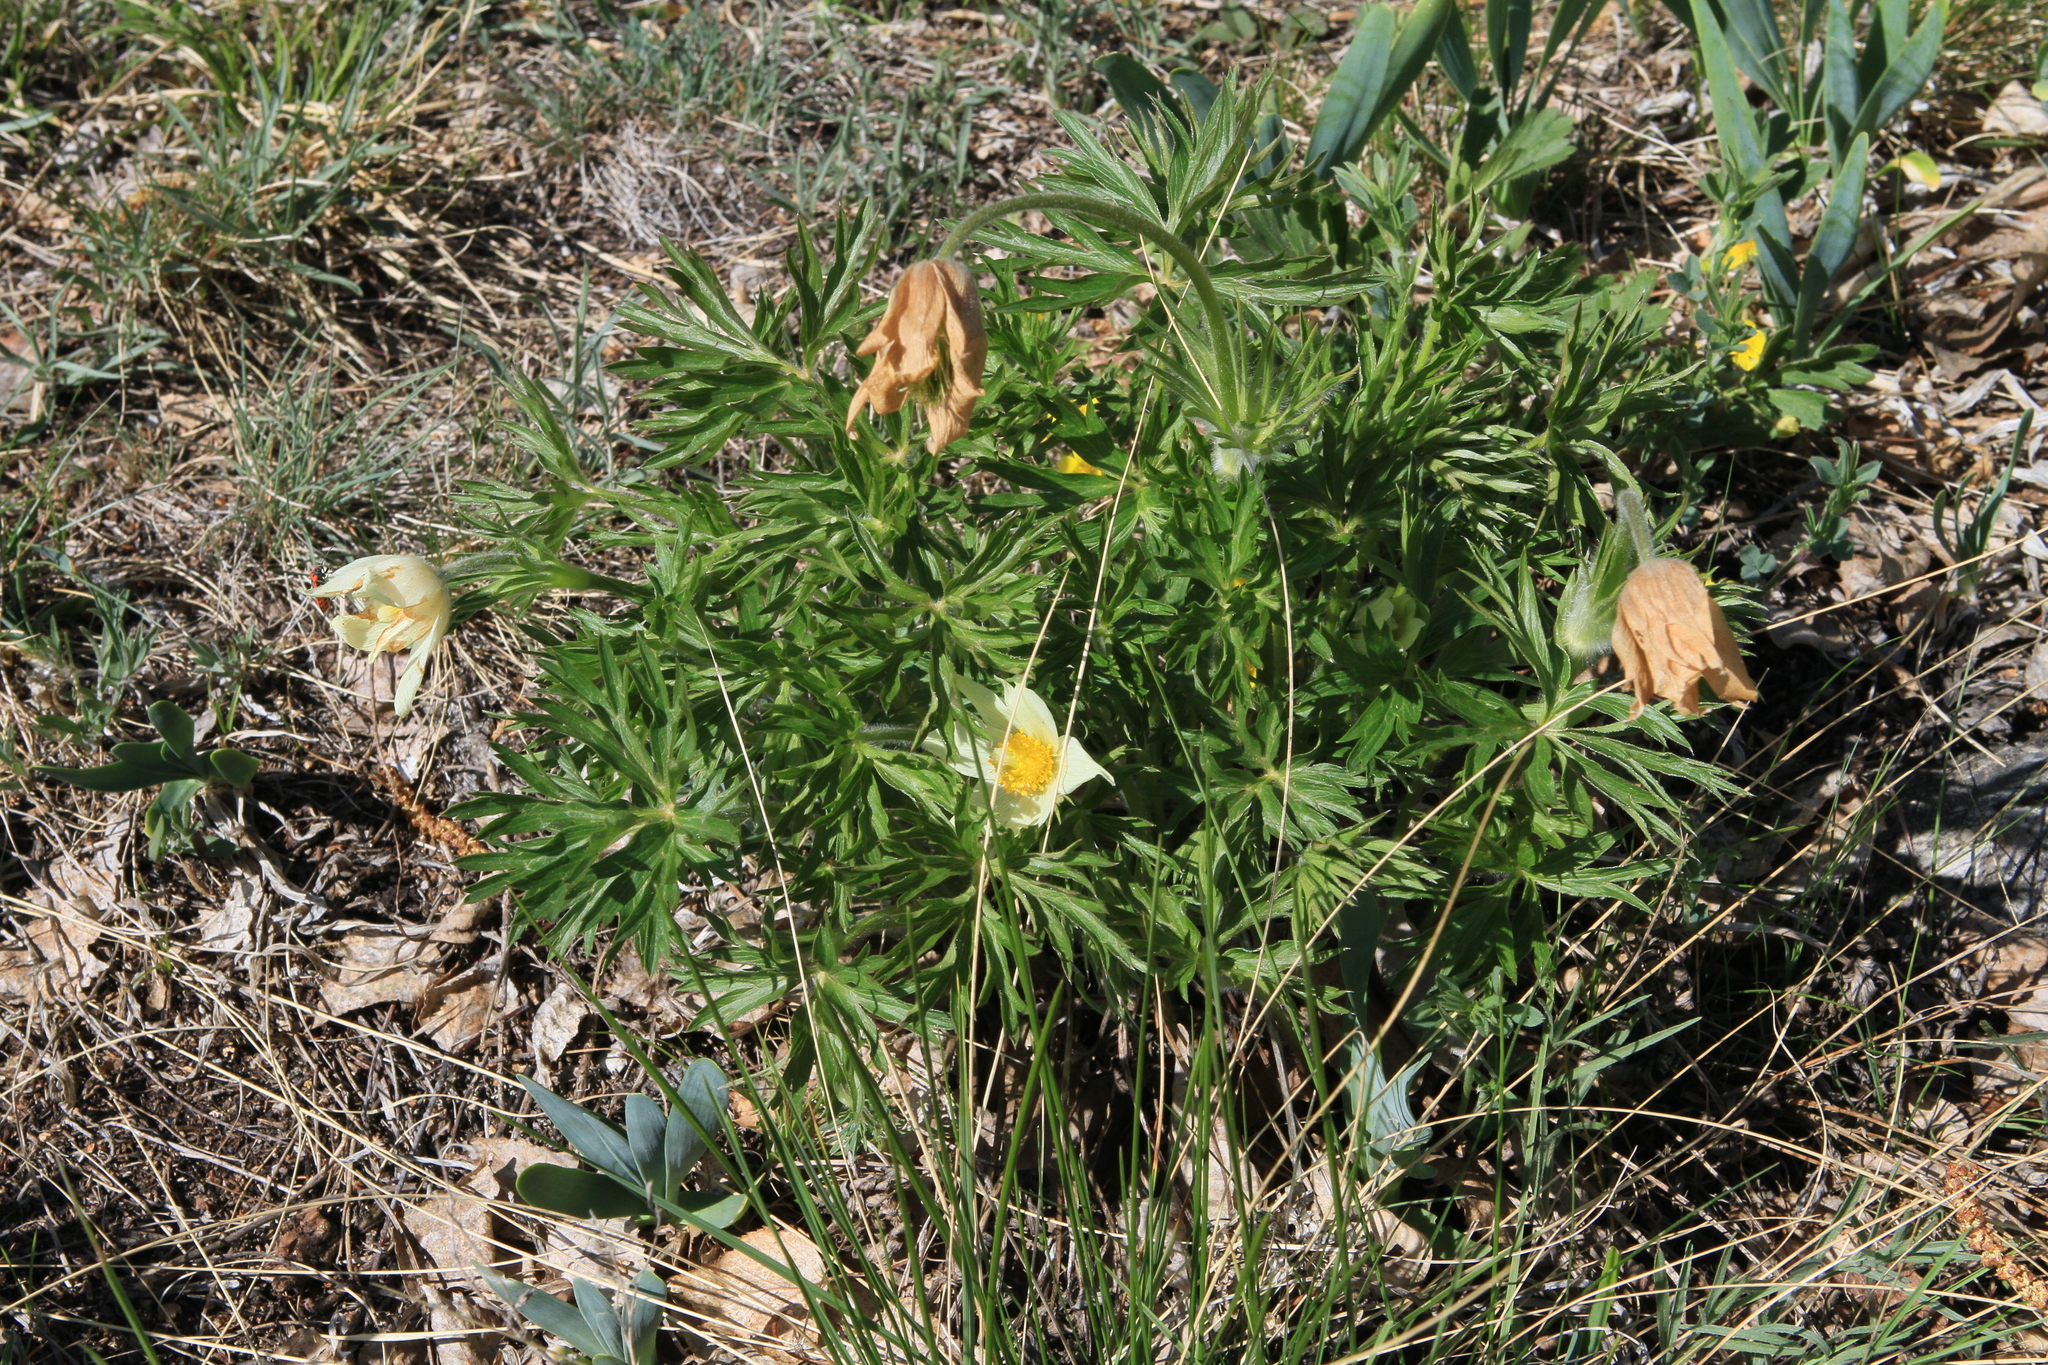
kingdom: Plantae
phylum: Tracheophyta
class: Magnoliopsida
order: Ranunculales
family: Ranunculaceae
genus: Pulsatilla
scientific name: Pulsatilla patens
